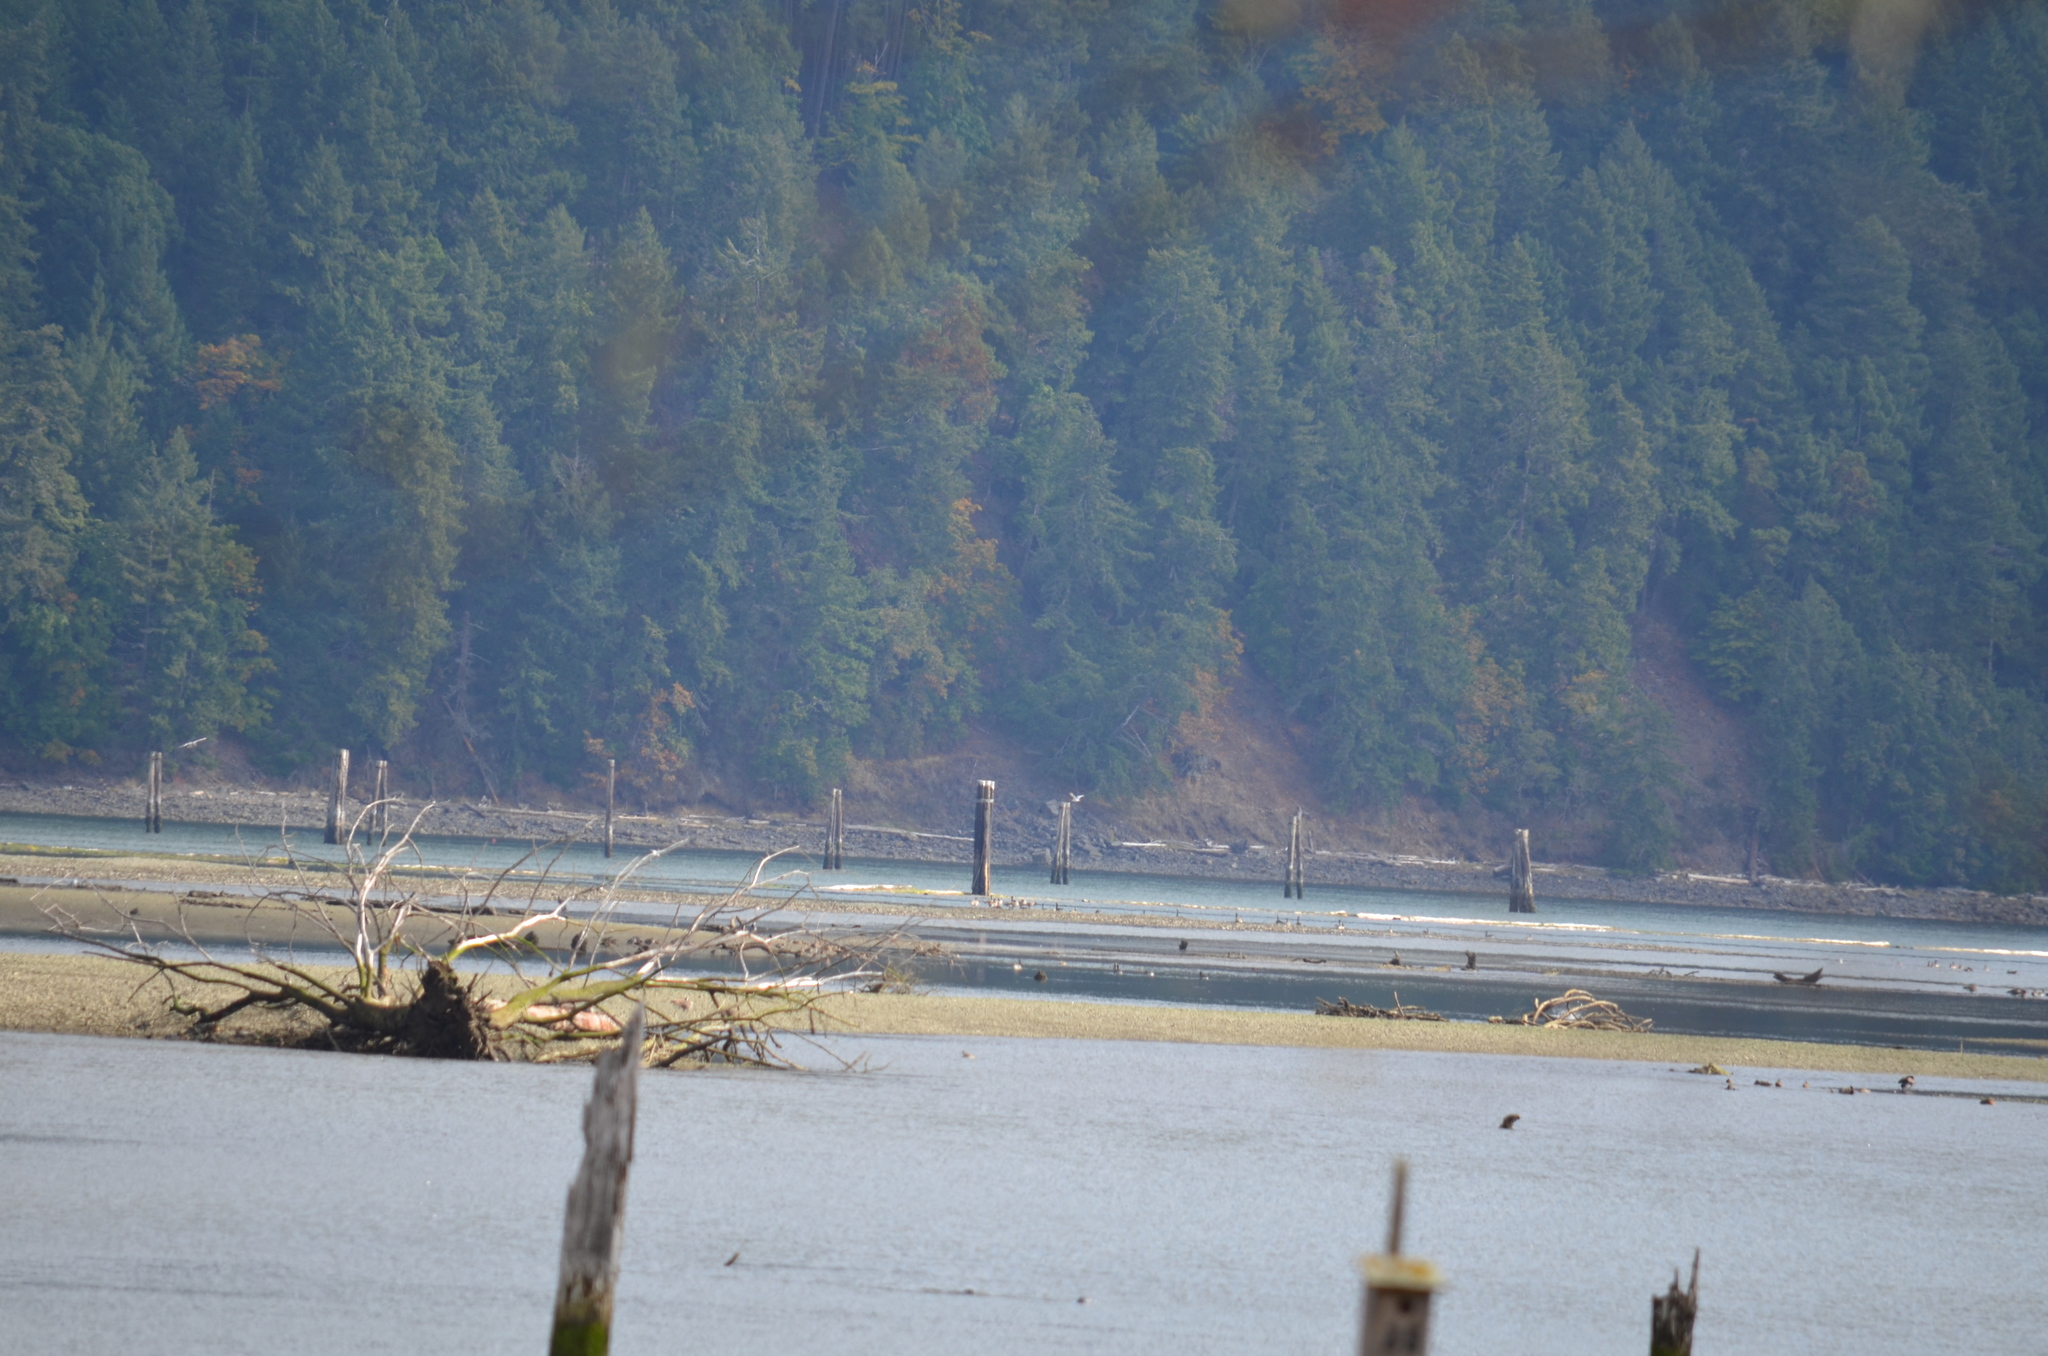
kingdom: Plantae
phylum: Tracheophyta
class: Pinopsida
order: Pinales
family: Pinaceae
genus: Pseudotsuga
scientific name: Pseudotsuga menziesii
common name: Douglas fir
